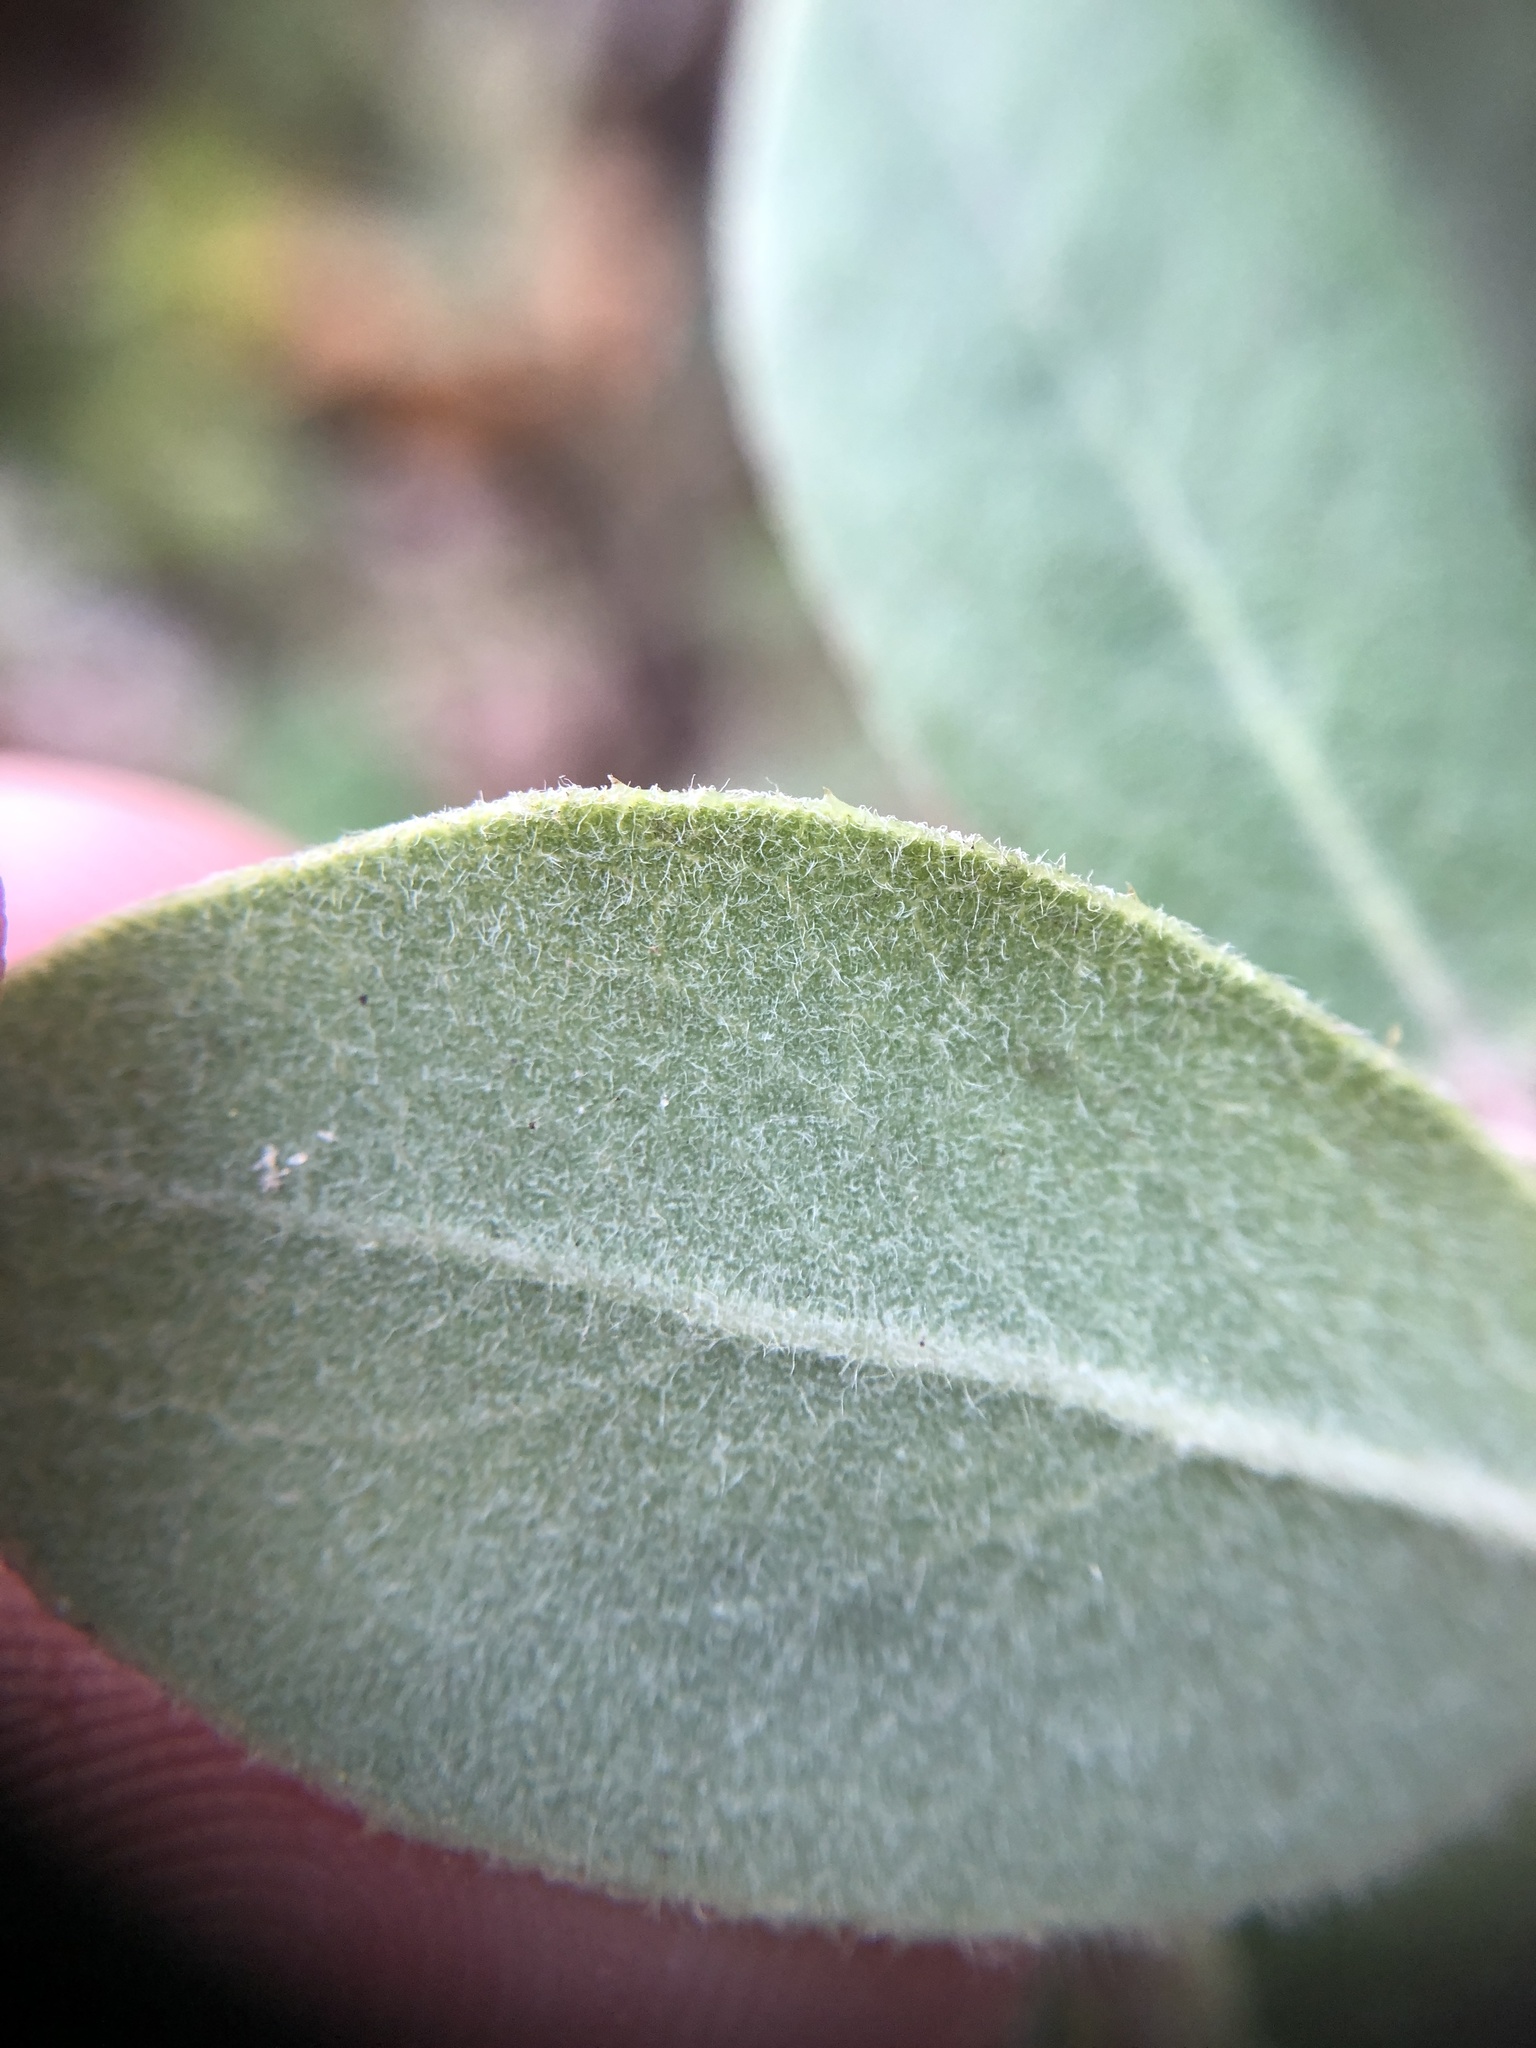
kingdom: Plantae
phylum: Tracheophyta
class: Magnoliopsida
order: Ericales
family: Ericaceae
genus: Arctostaphylos
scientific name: Arctostaphylos crustacea
